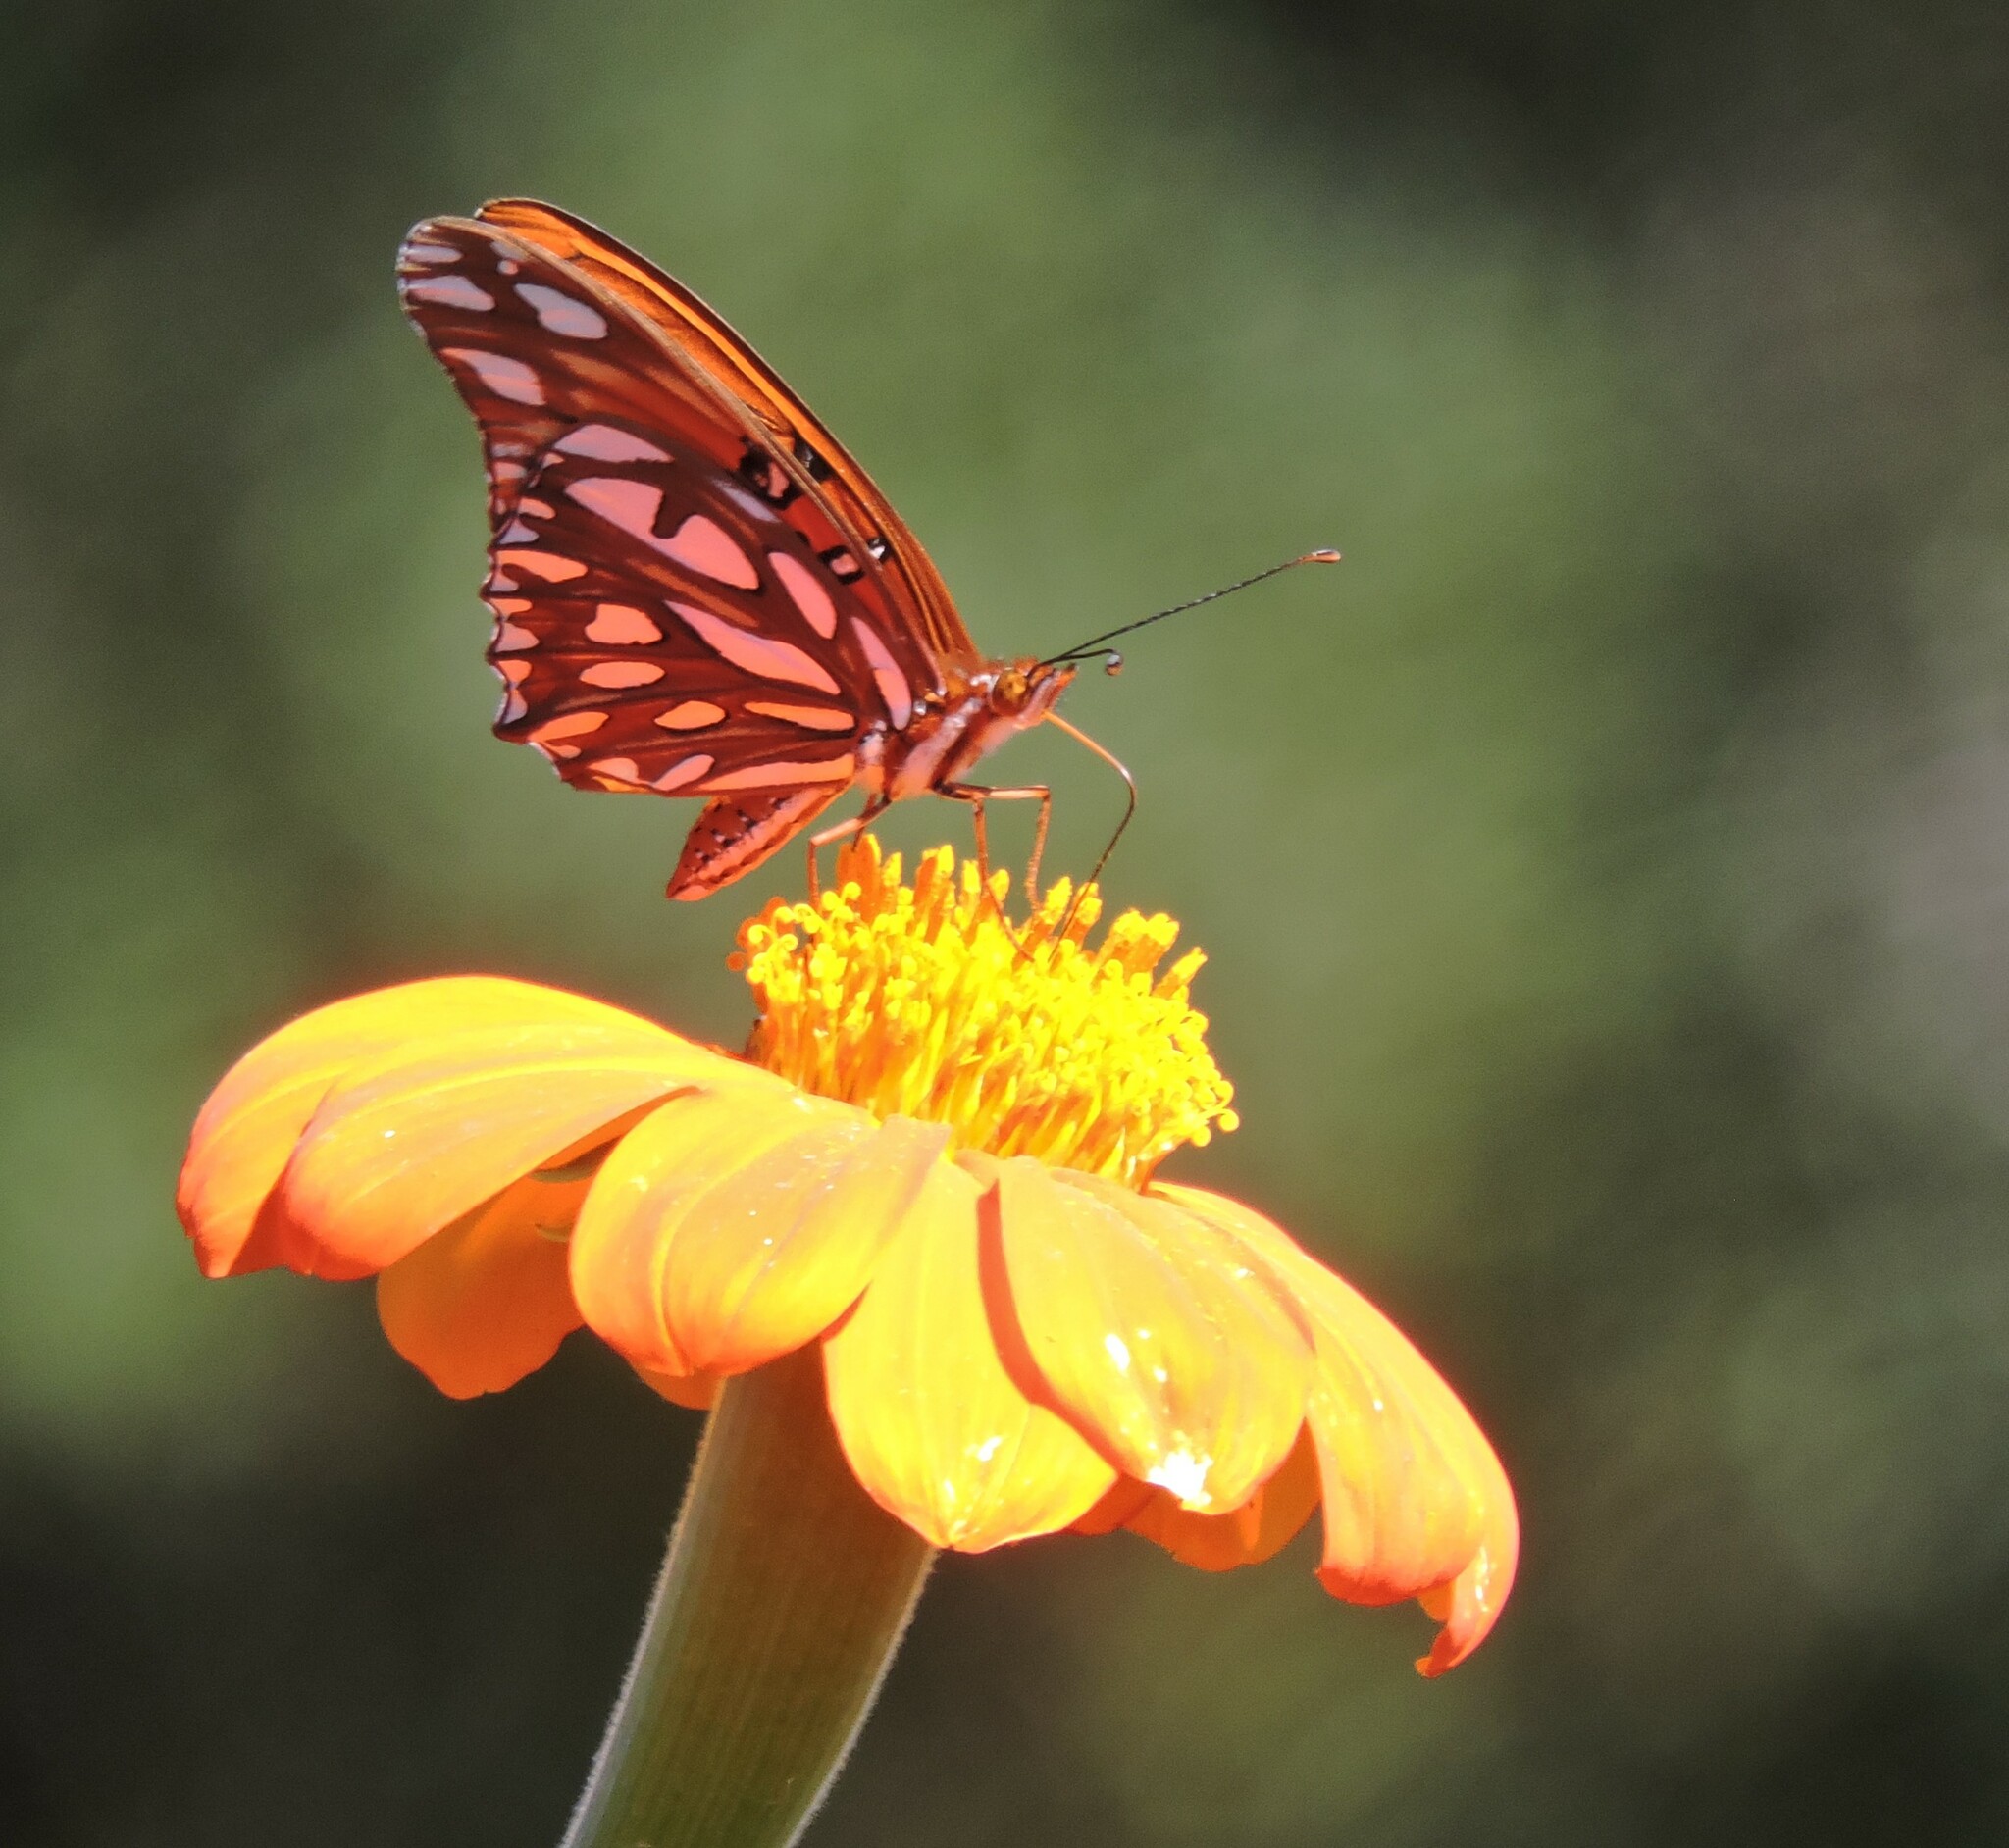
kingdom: Animalia
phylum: Arthropoda
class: Insecta
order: Lepidoptera
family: Nymphalidae
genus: Dione
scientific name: Dione vanillae
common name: Gulf fritillary
